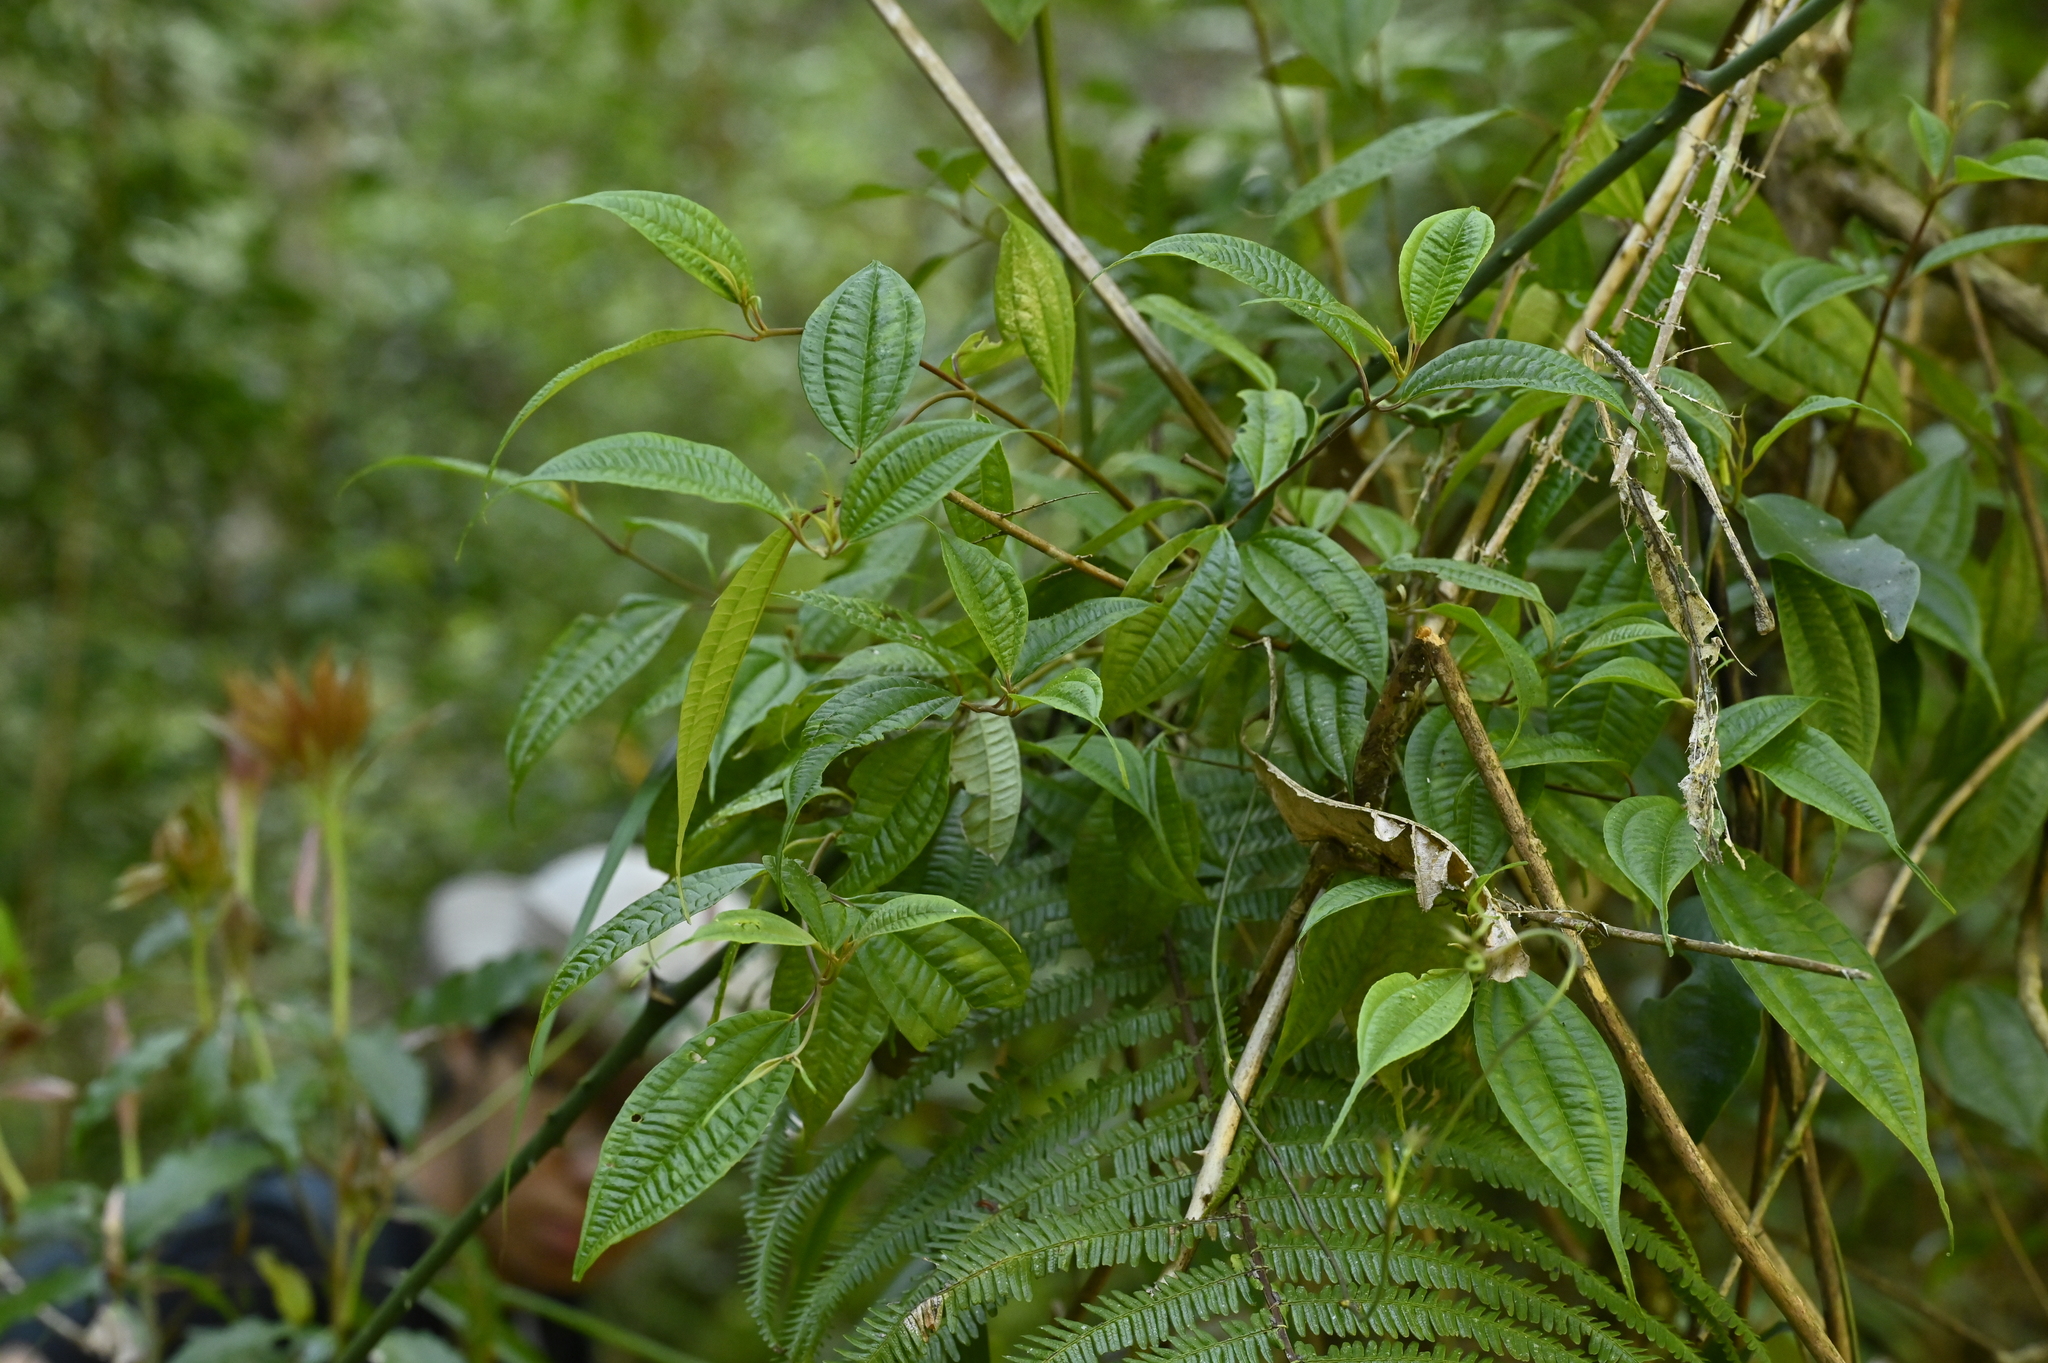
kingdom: Plantae
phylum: Tracheophyta
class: Magnoliopsida
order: Myrtales
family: Melastomataceae
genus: Barthea
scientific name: Barthea barthei
